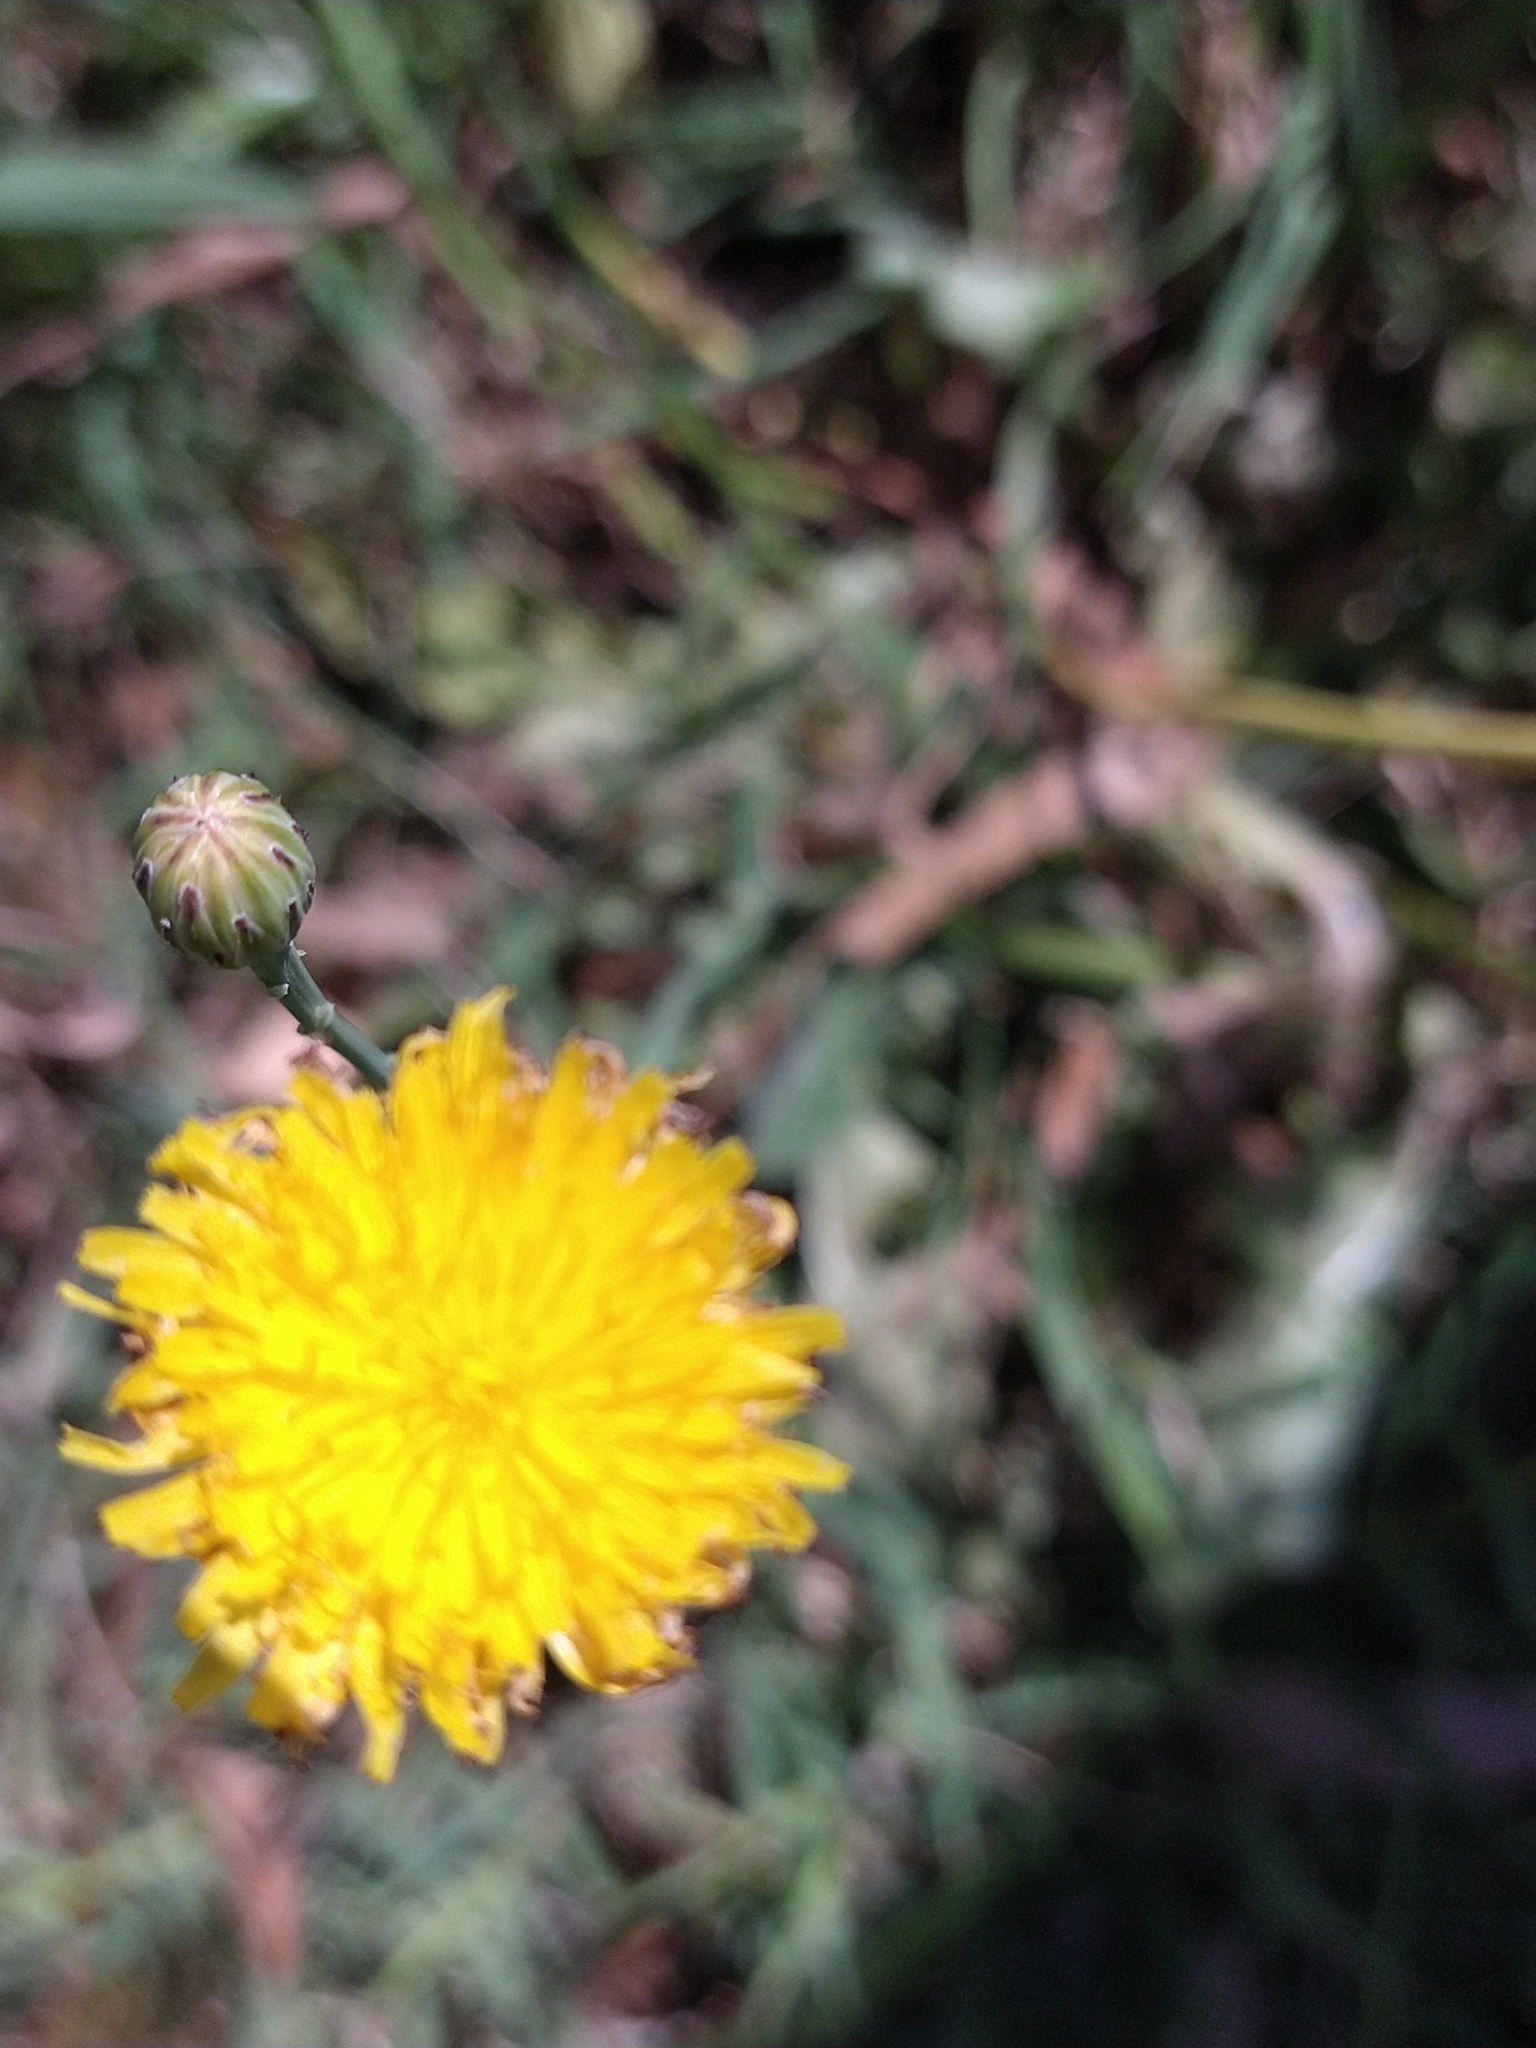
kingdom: Plantae
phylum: Tracheophyta
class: Magnoliopsida
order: Asterales
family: Asteraceae
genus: Hypochaeris
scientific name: Hypochaeris radicata
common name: Flatweed
